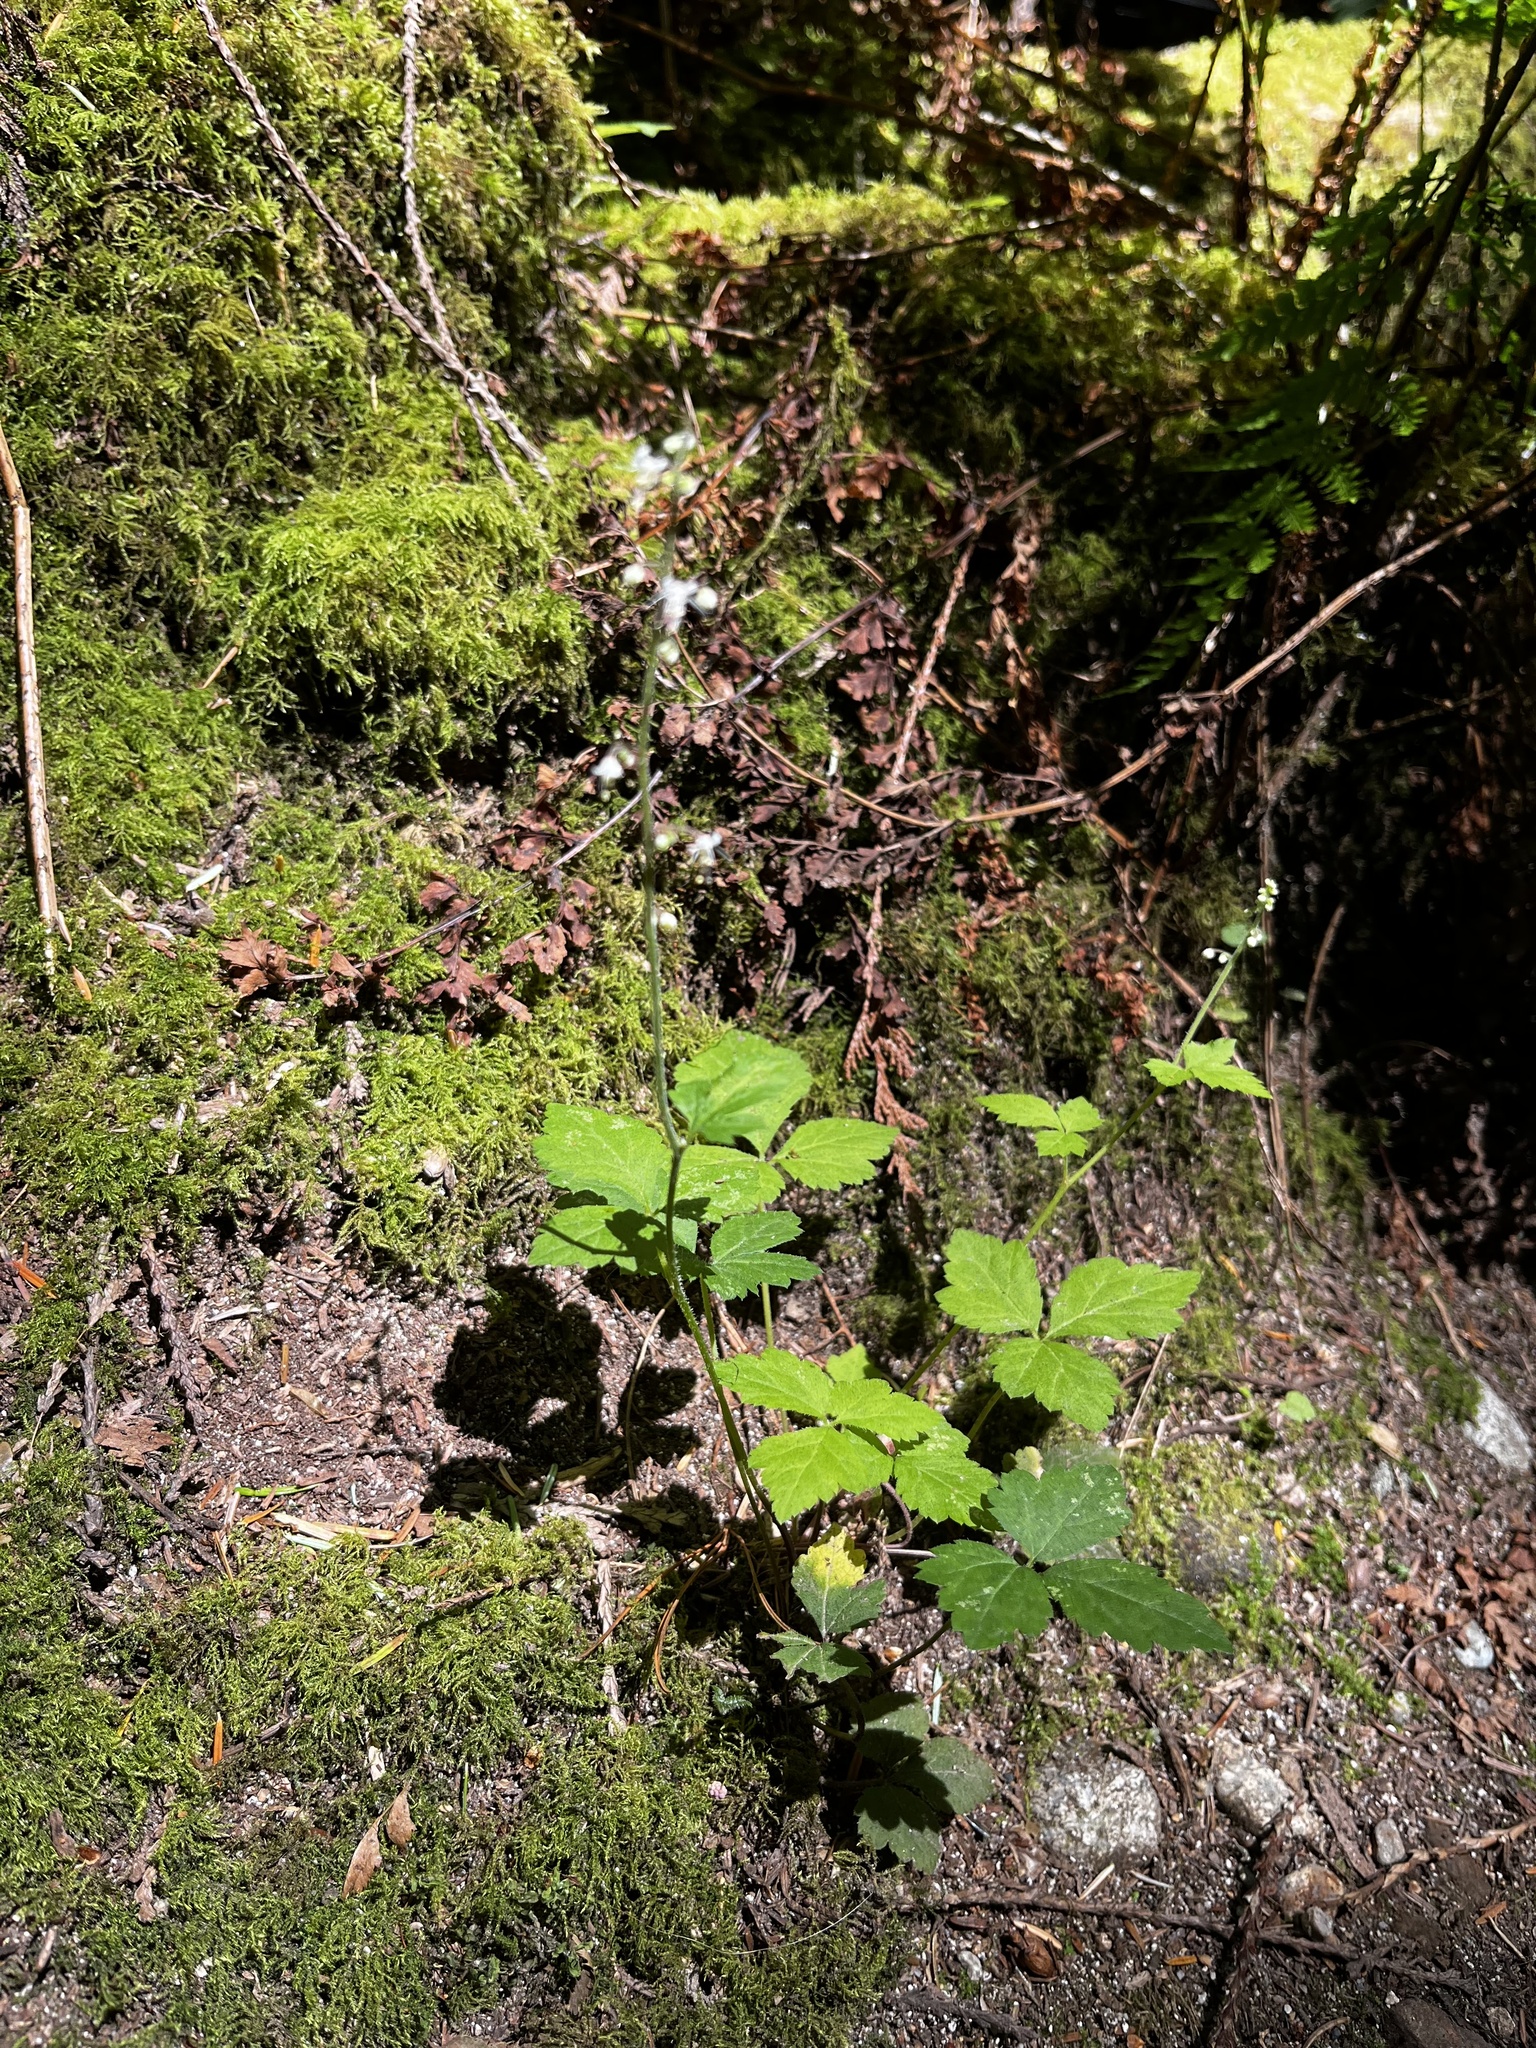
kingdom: Plantae
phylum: Tracheophyta
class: Magnoliopsida
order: Saxifragales
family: Saxifragaceae
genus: Tiarella
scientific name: Tiarella trifoliata
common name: Sugar-scoop
